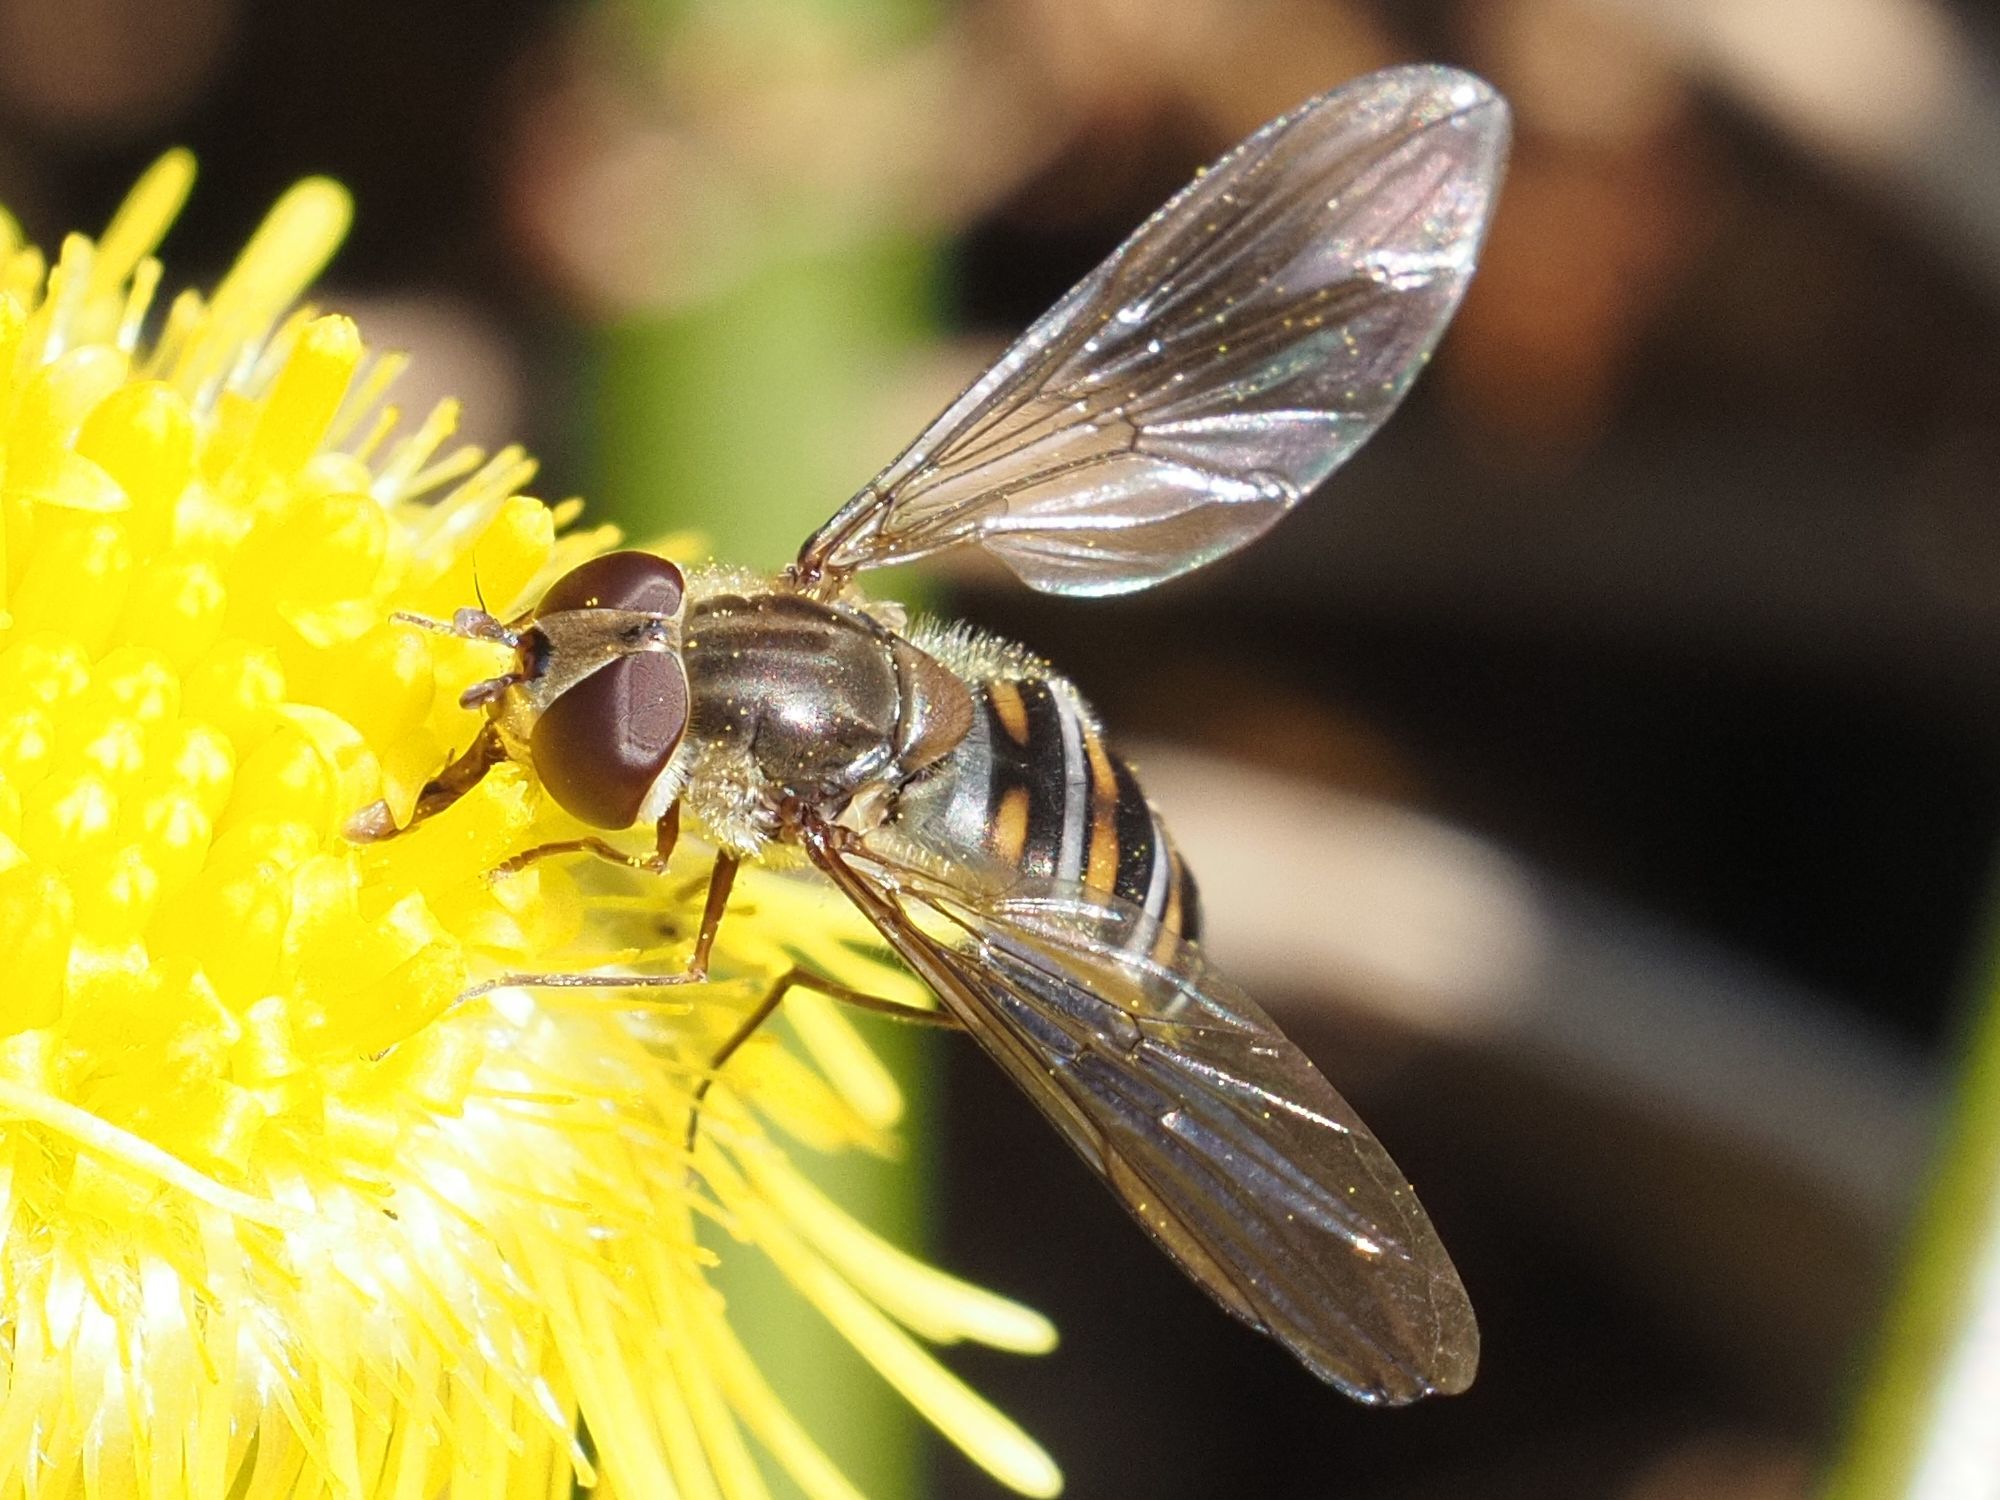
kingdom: Animalia
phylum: Arthropoda
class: Insecta
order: Diptera
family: Syrphidae
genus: Episyrphus
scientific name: Episyrphus balteatus
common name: Marmalade hoverfly
